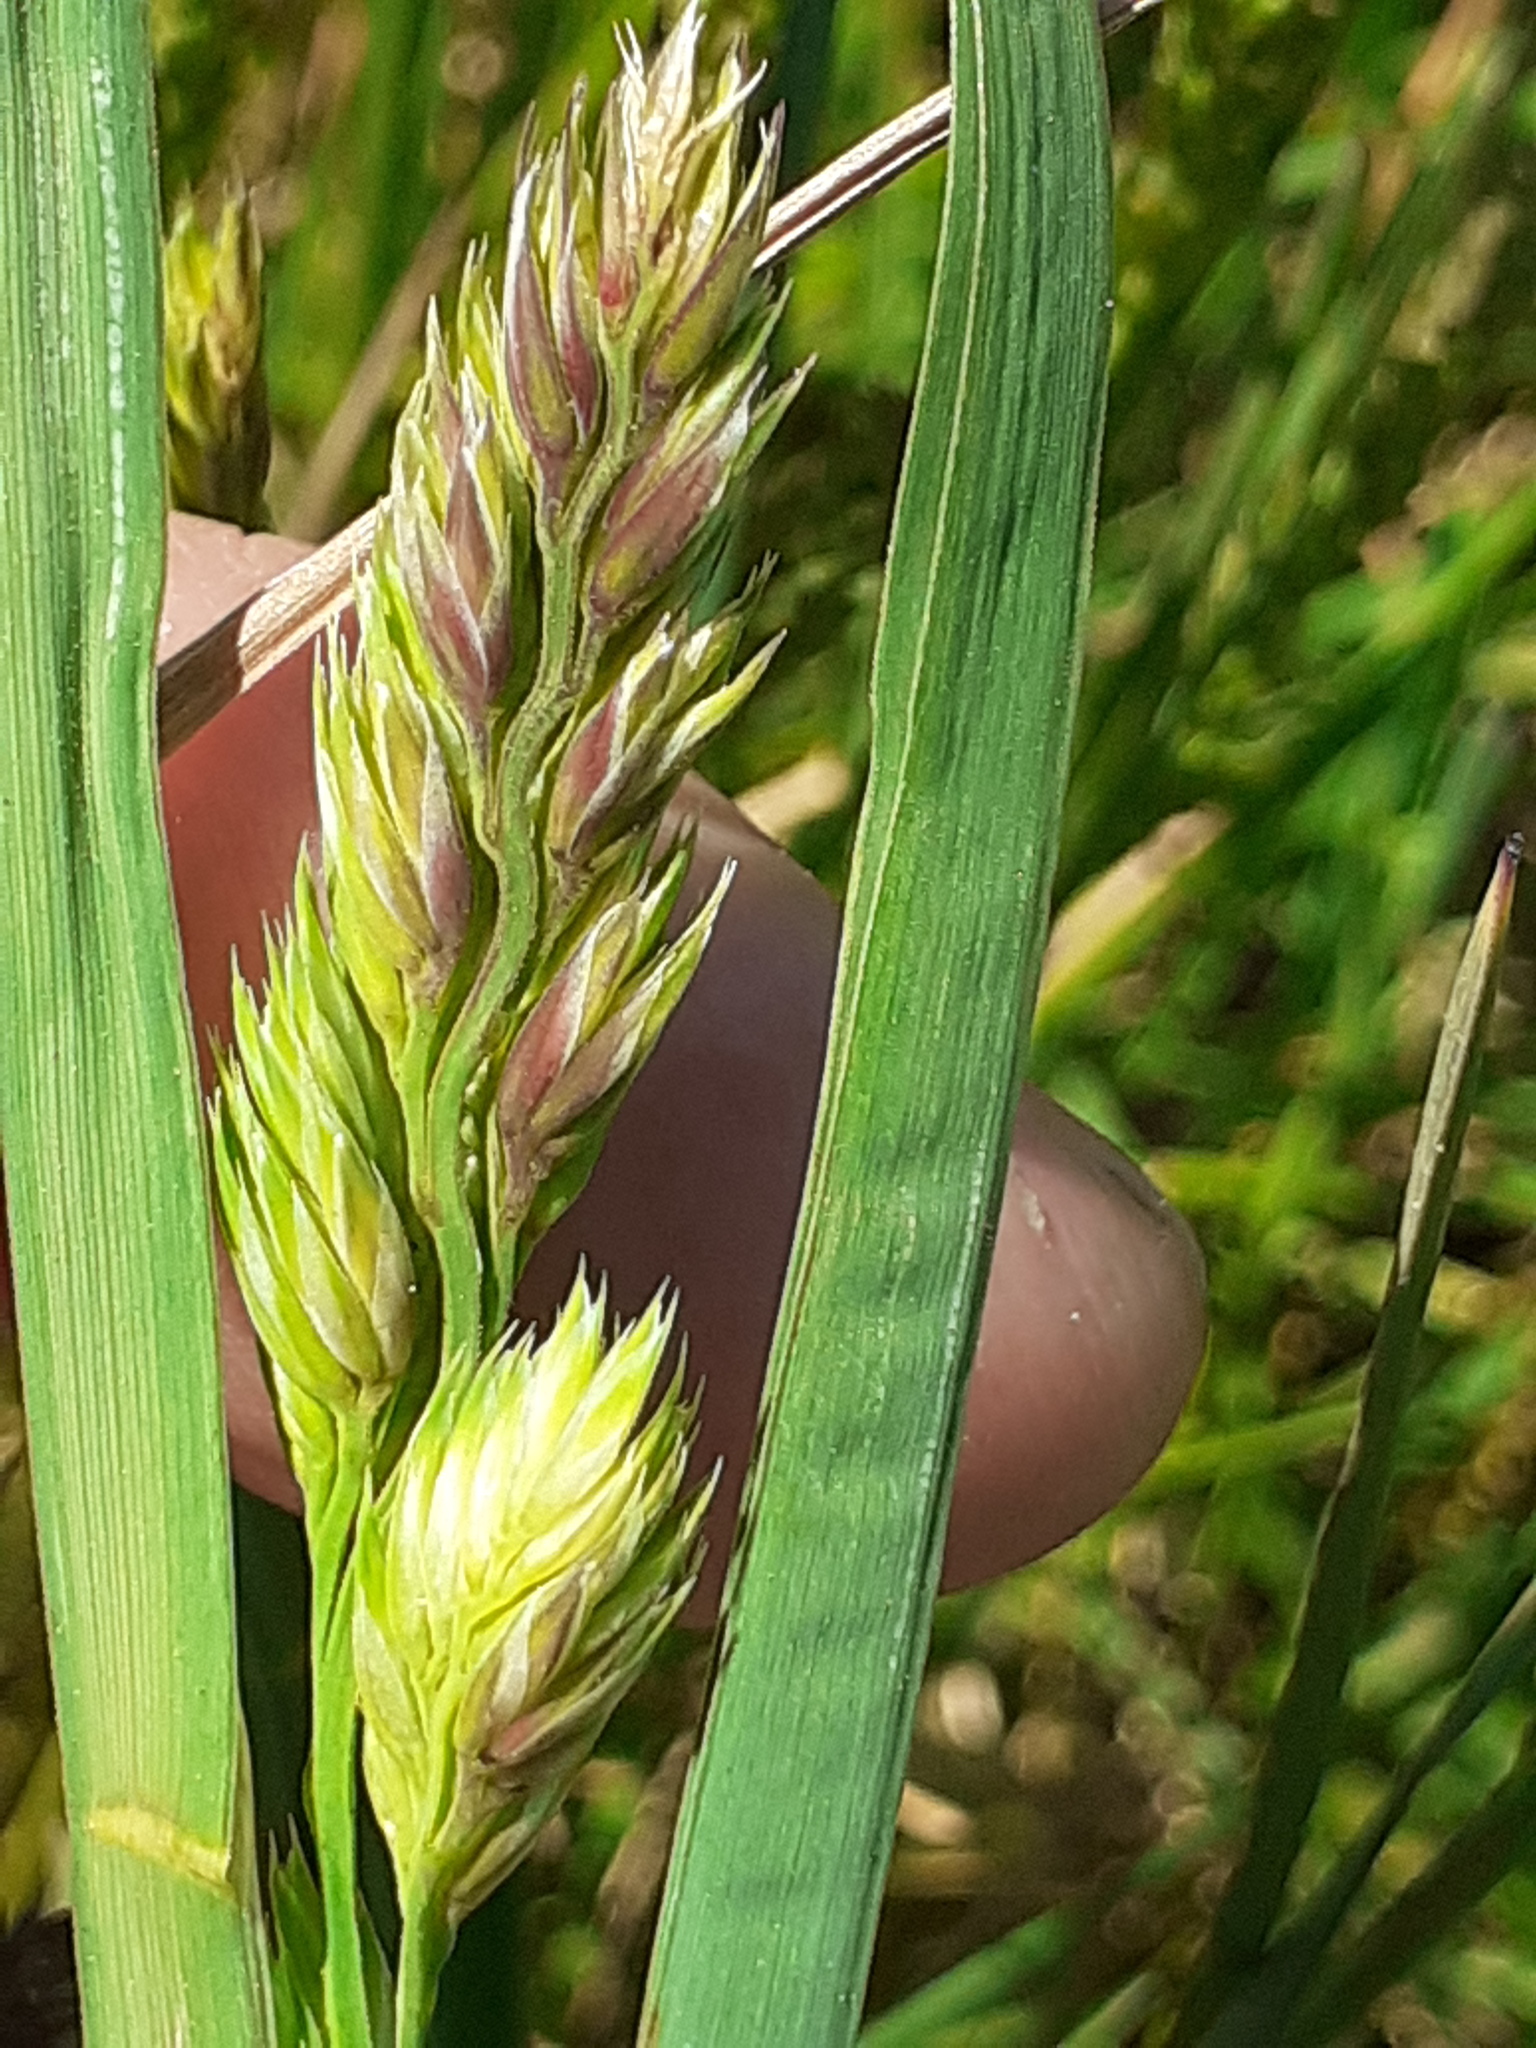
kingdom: Plantae
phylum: Tracheophyta
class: Liliopsida
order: Poales
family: Poaceae
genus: Dactylis
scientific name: Dactylis glomerata
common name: Orchardgrass
